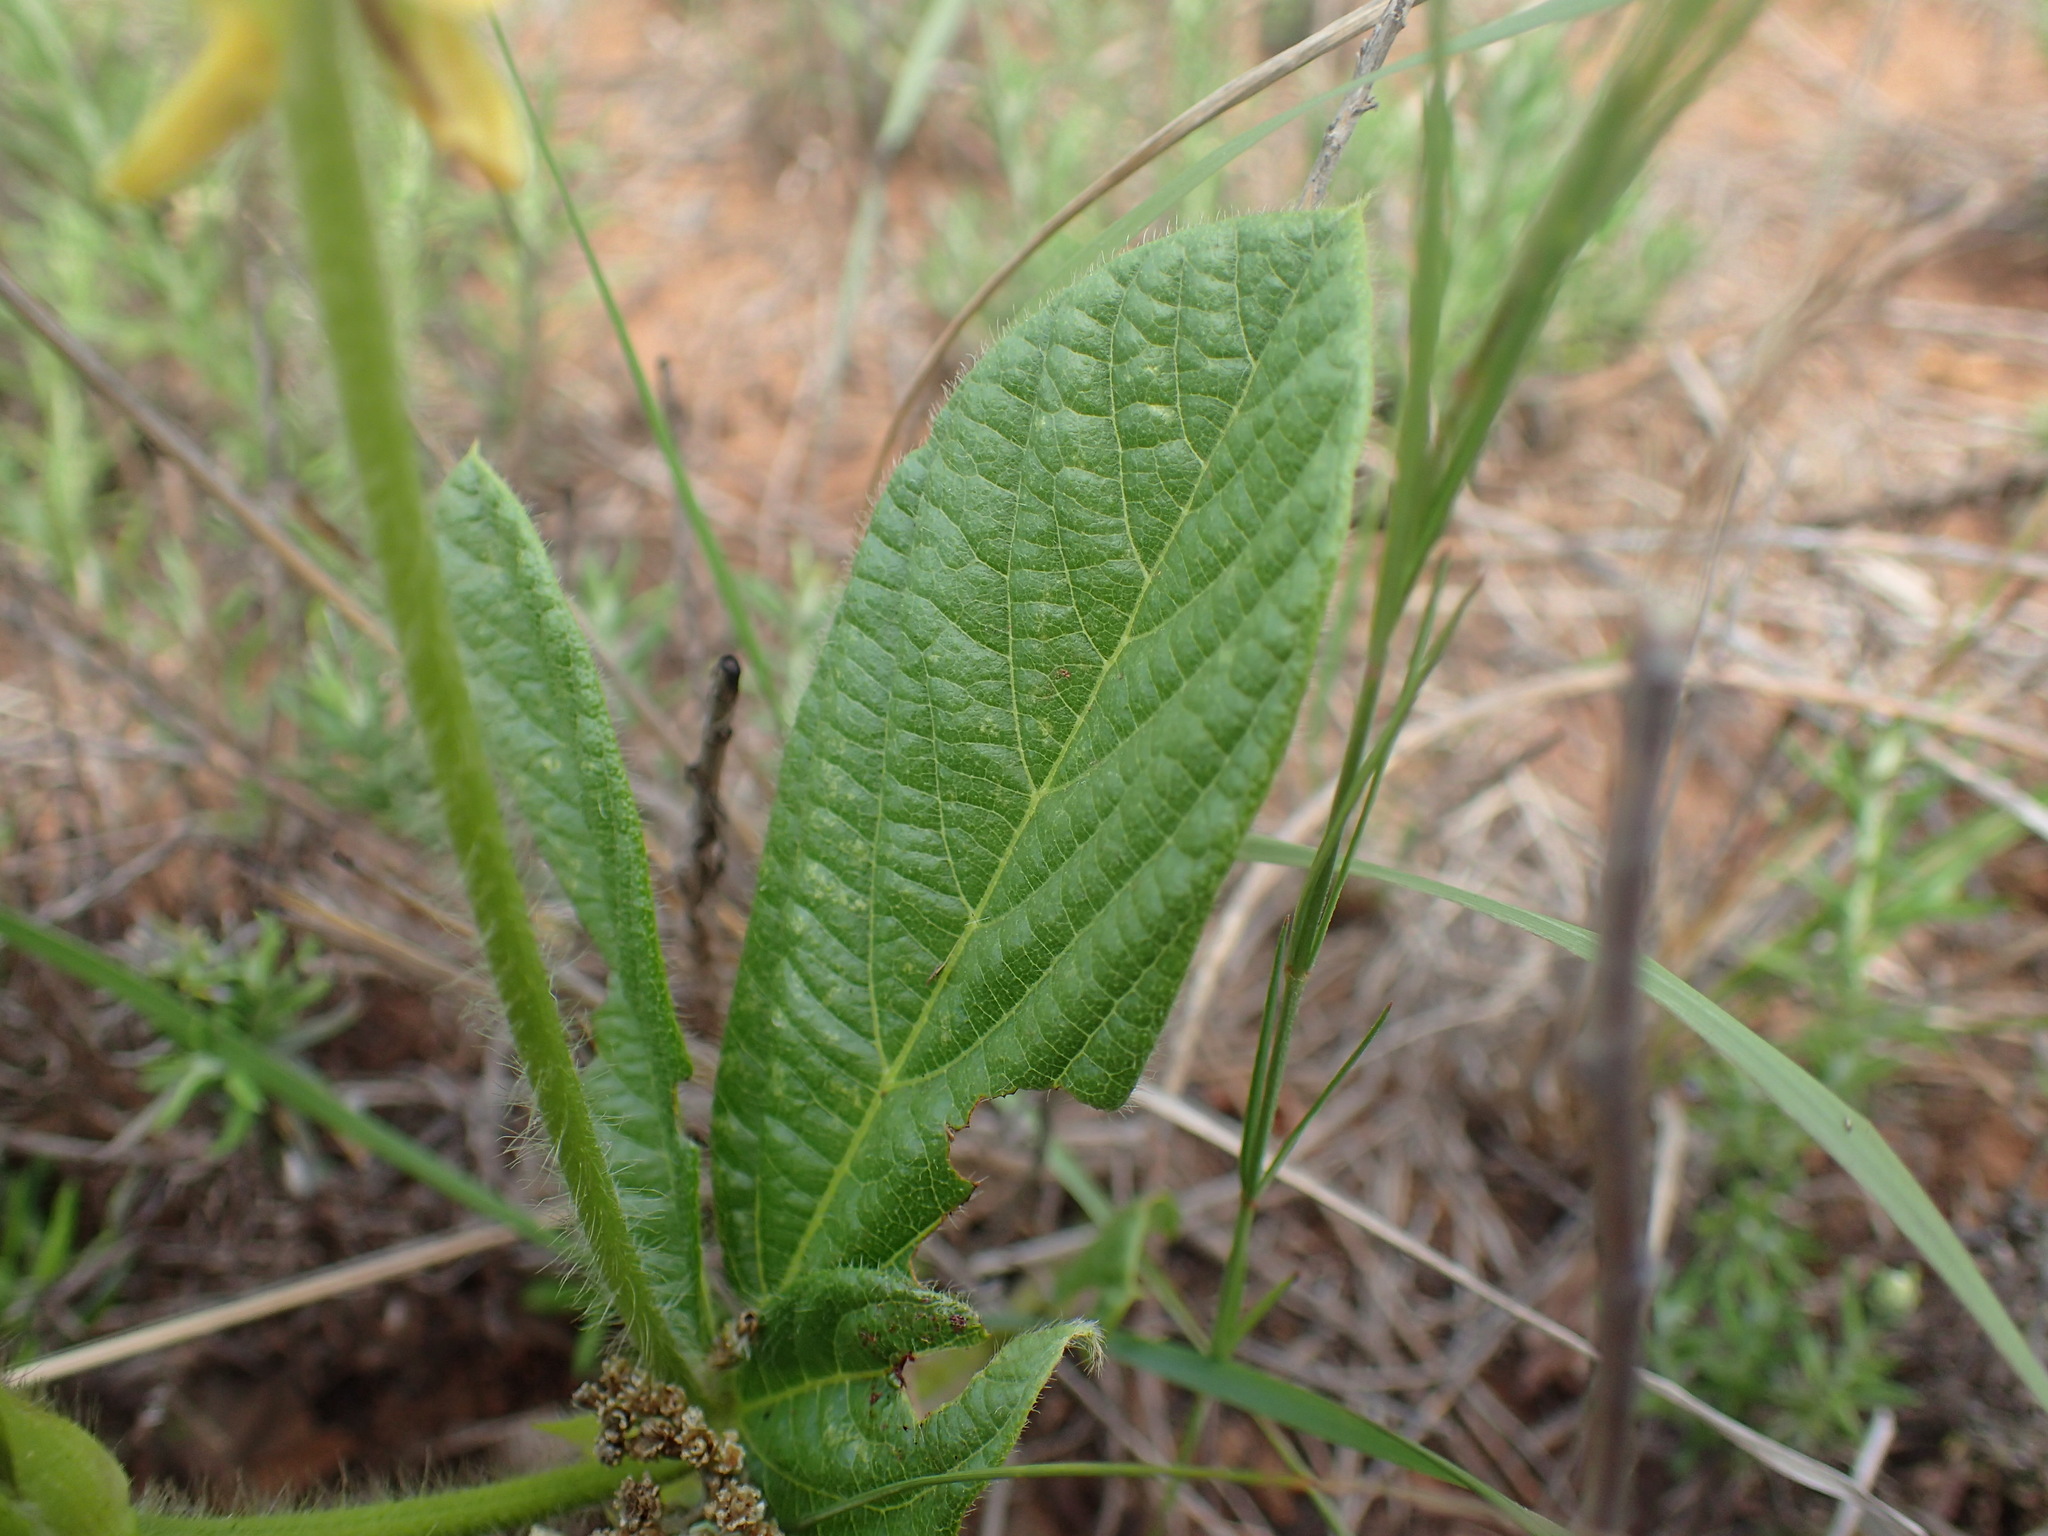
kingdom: Plantae
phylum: Tracheophyta
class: Magnoliopsida
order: Fabales
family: Fabaceae
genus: Eriosema
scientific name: Eriosema cordatum
